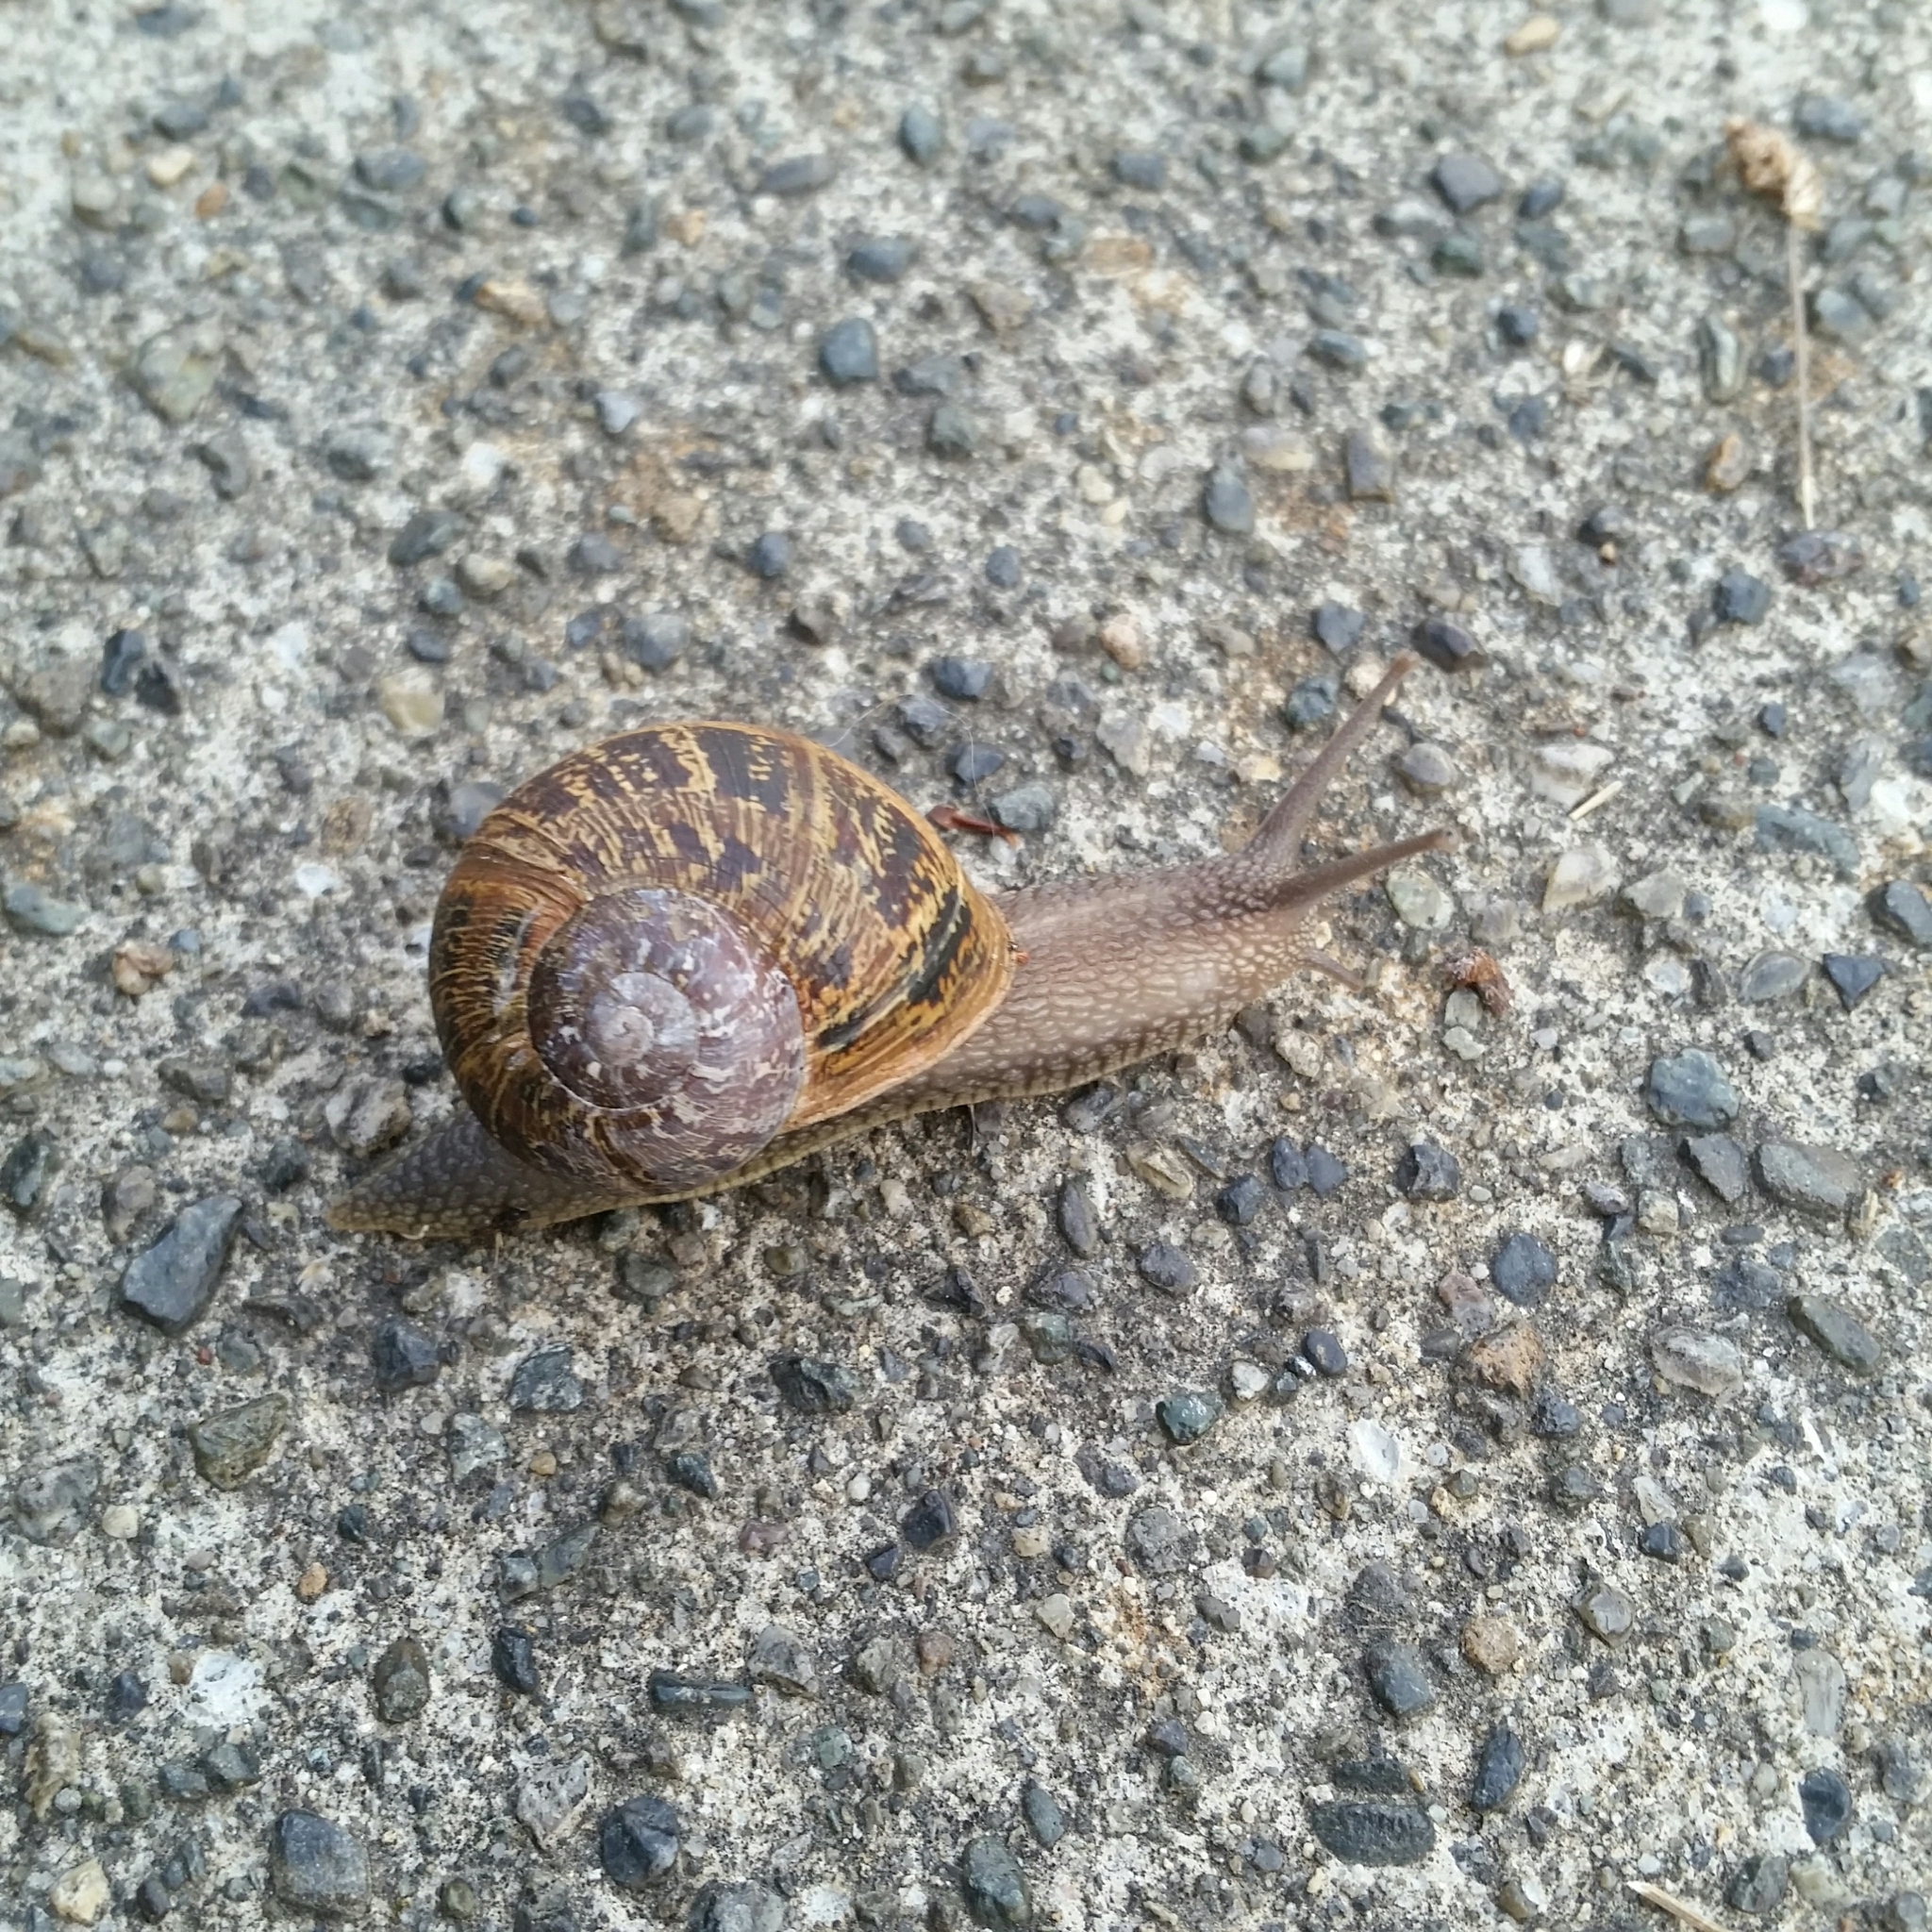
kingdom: Animalia
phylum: Mollusca
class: Gastropoda
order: Stylommatophora
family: Helicidae
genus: Cornu
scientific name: Cornu aspersum
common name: Brown garden snail
